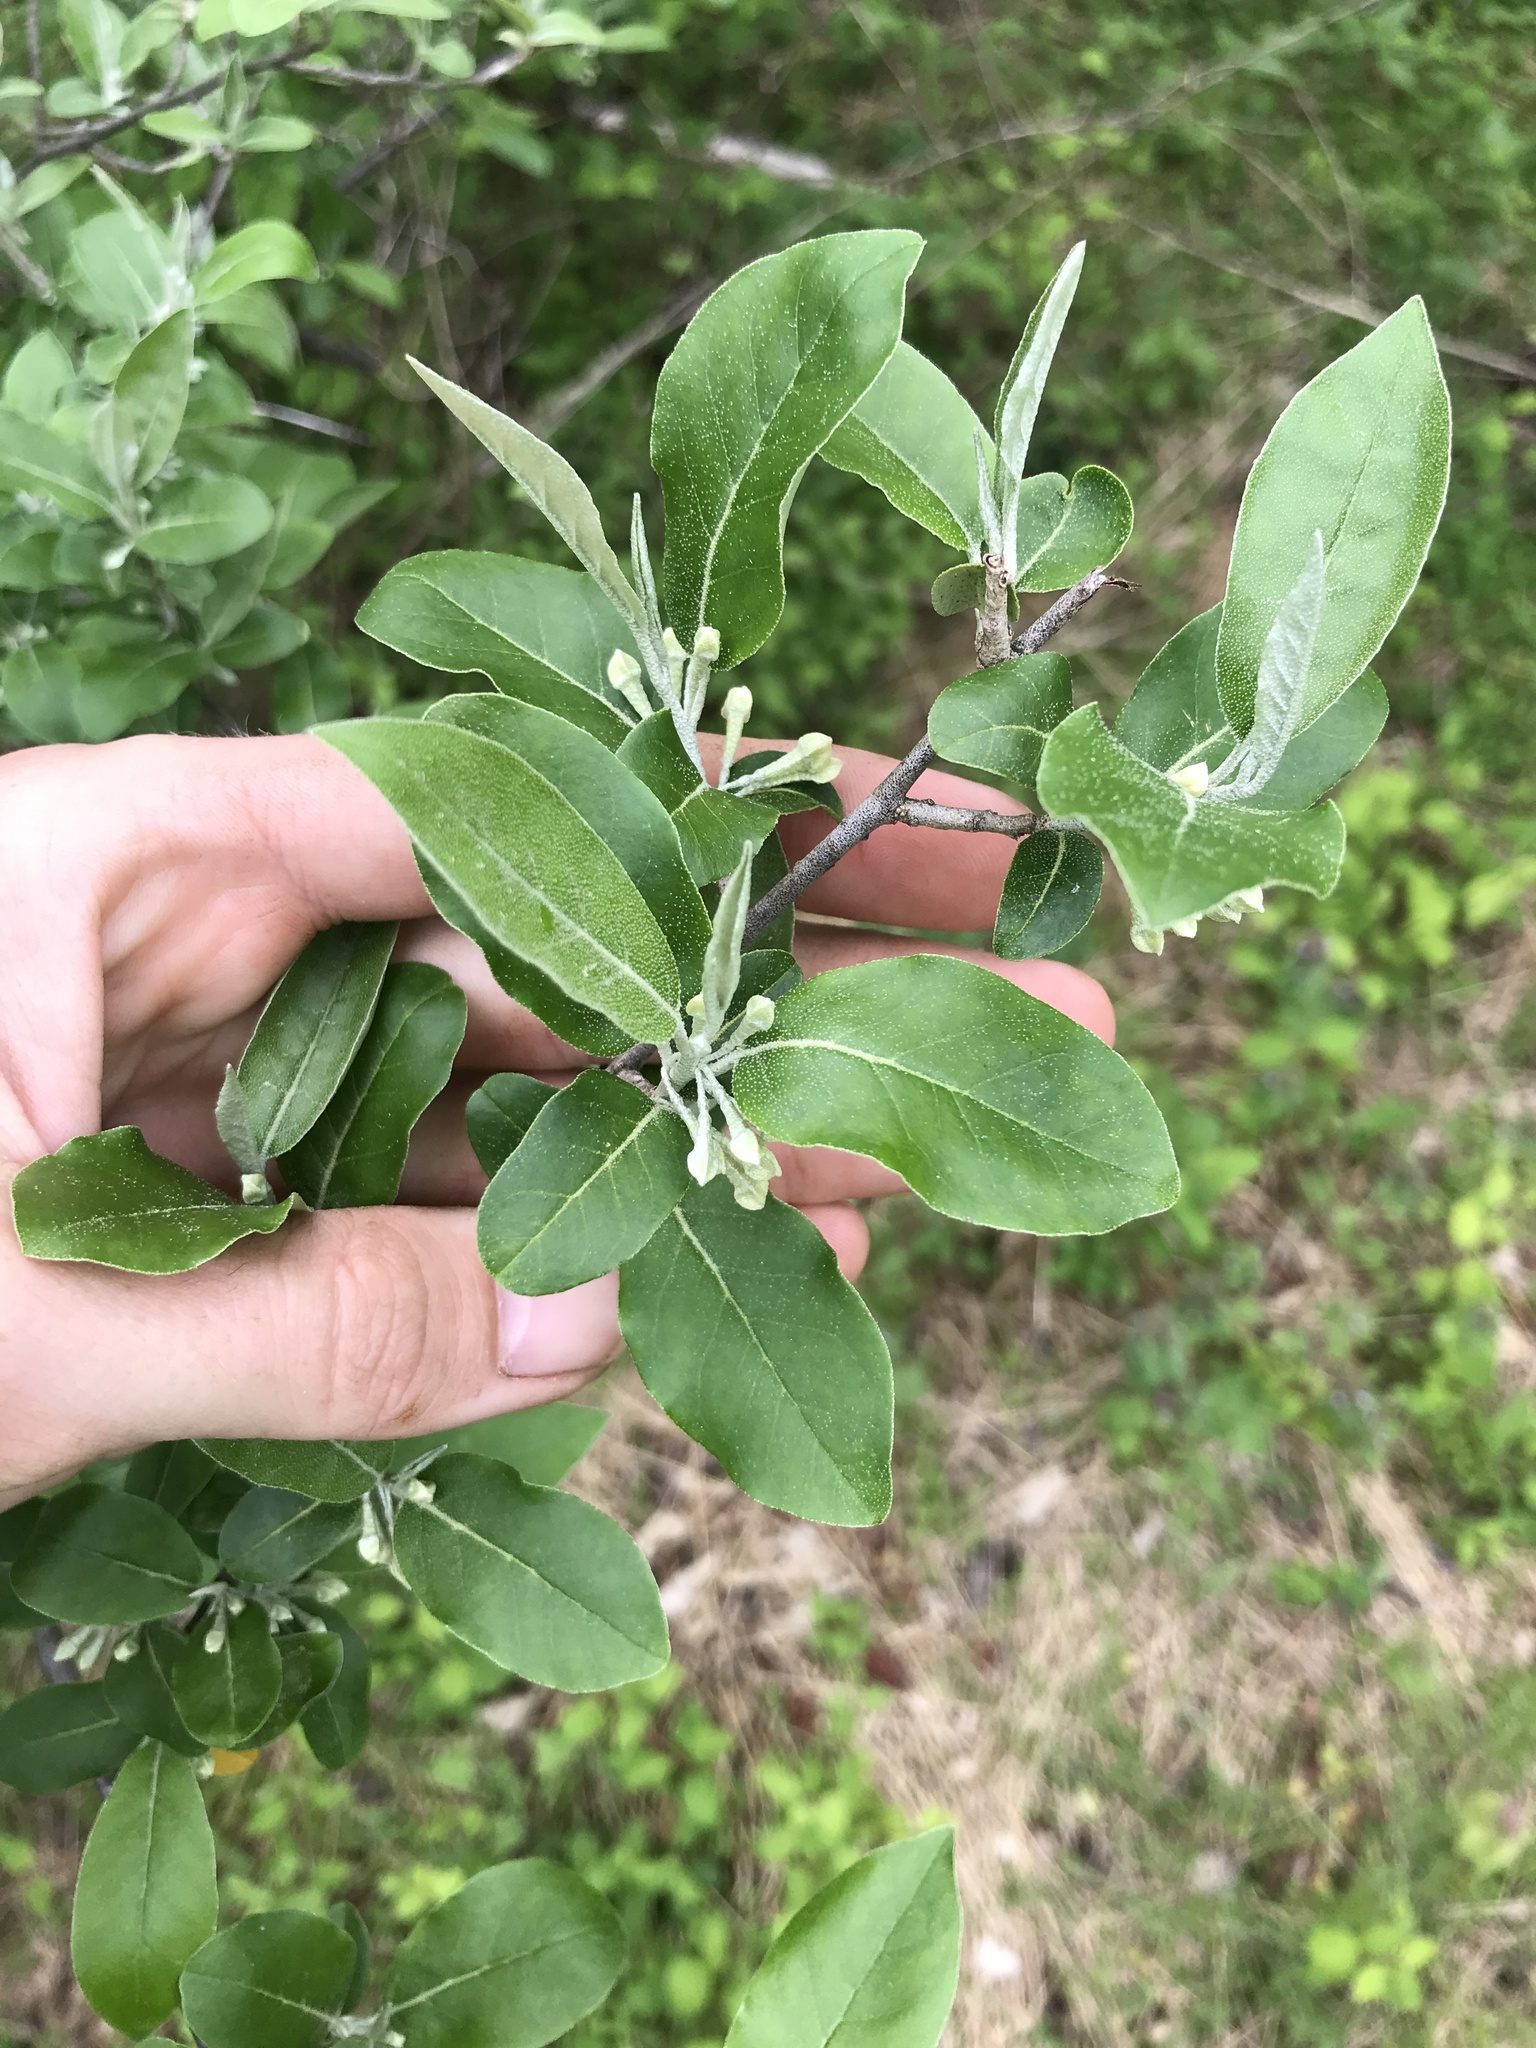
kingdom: Plantae
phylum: Tracheophyta
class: Magnoliopsida
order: Rosales
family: Elaeagnaceae
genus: Elaeagnus
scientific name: Elaeagnus umbellata
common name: Autumn olive
